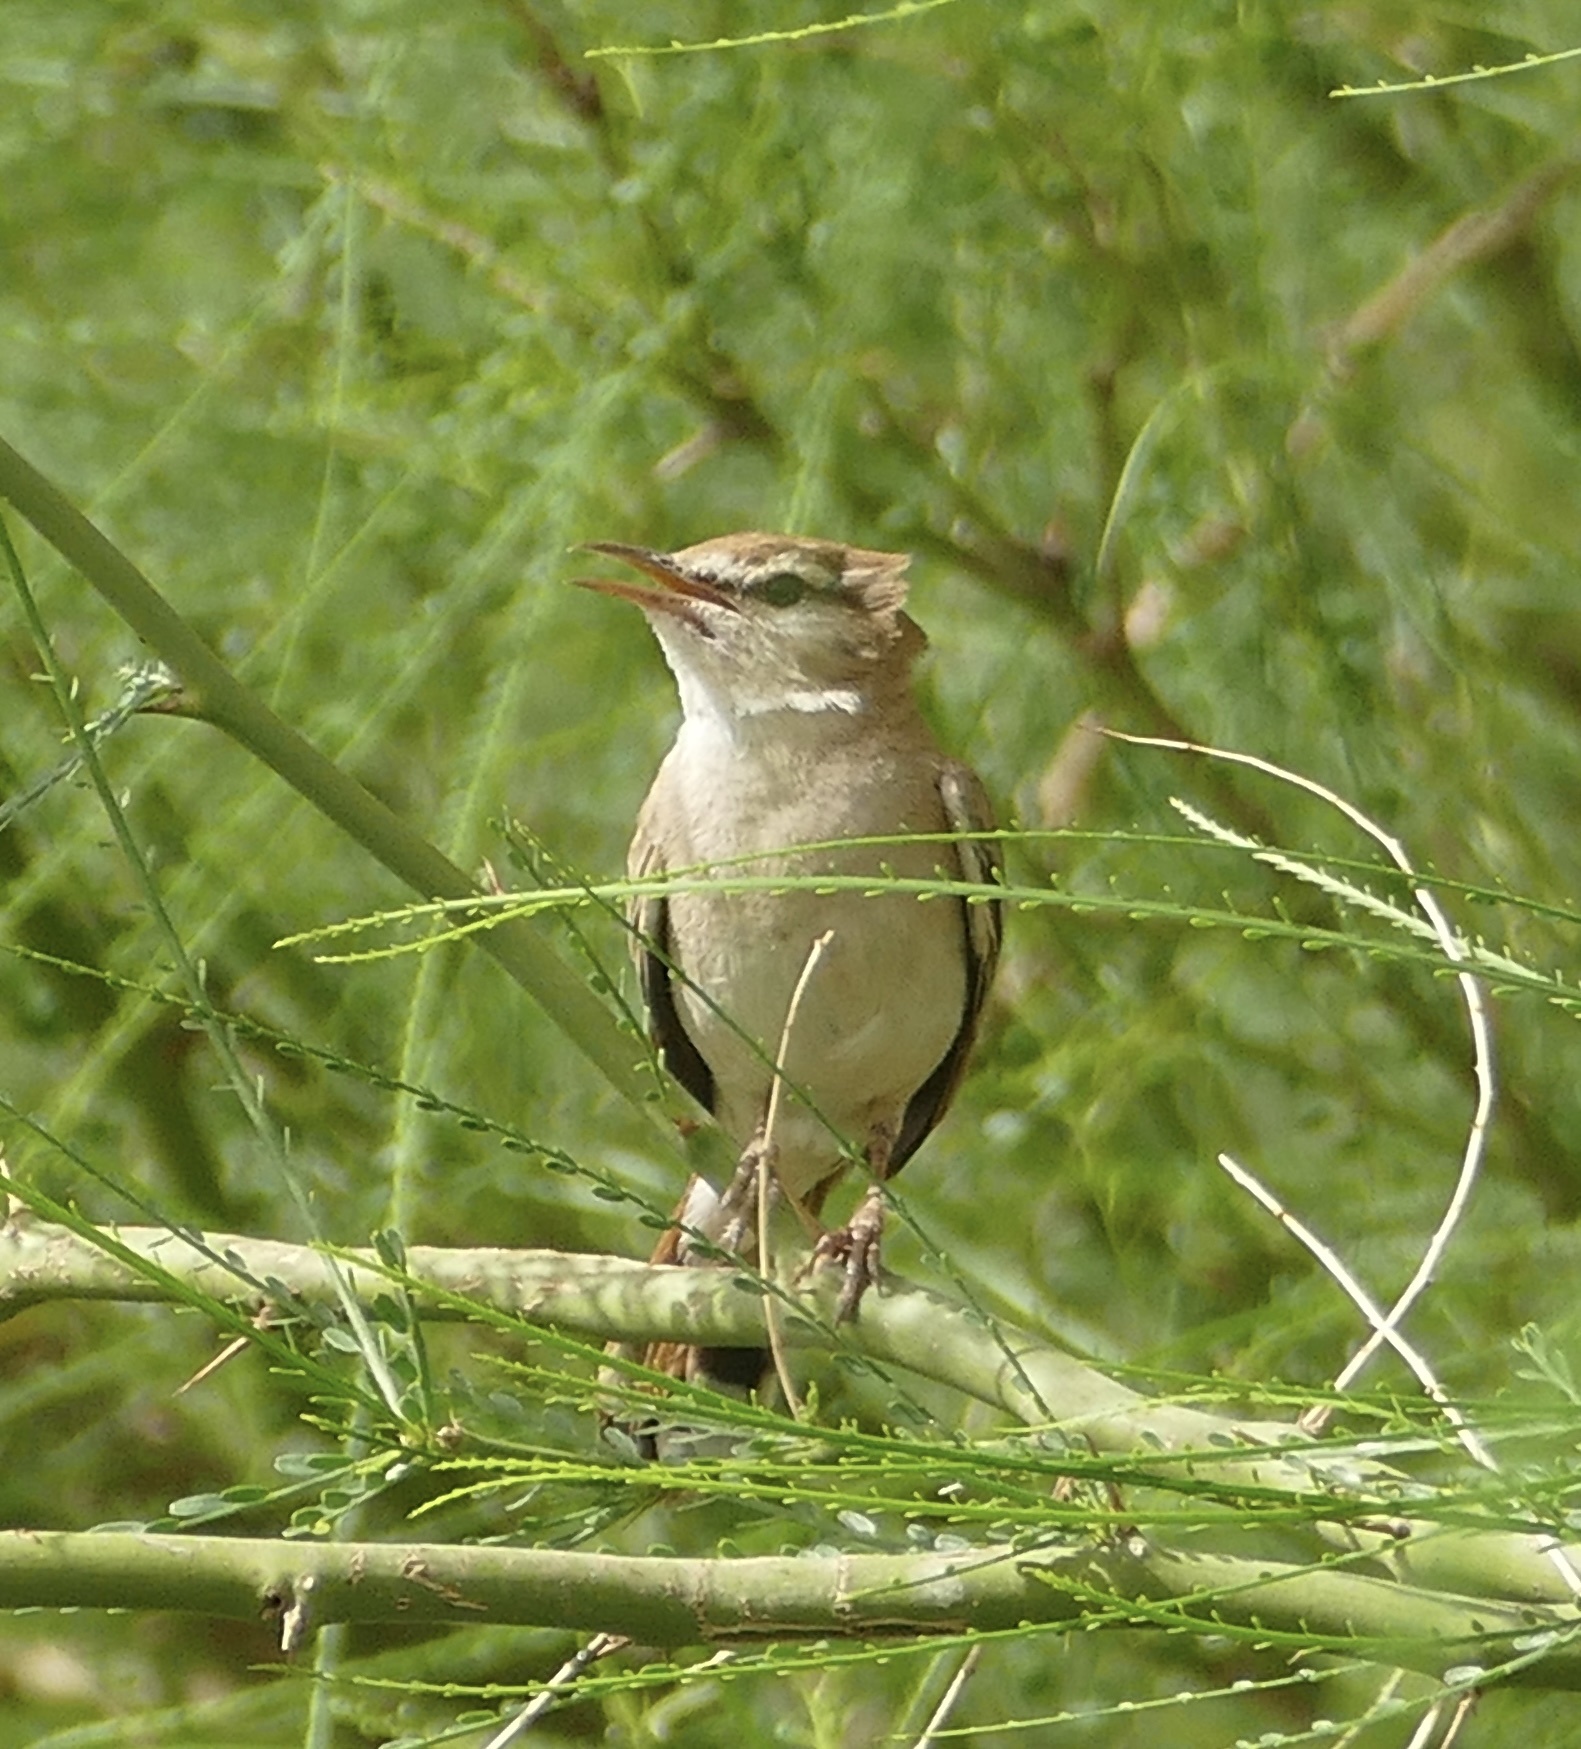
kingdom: Animalia
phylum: Chordata
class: Aves
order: Passeriformes
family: Muscicapidae
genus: Erythropygia
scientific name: Erythropygia galactotes
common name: Rufous-tailed scrub robin
